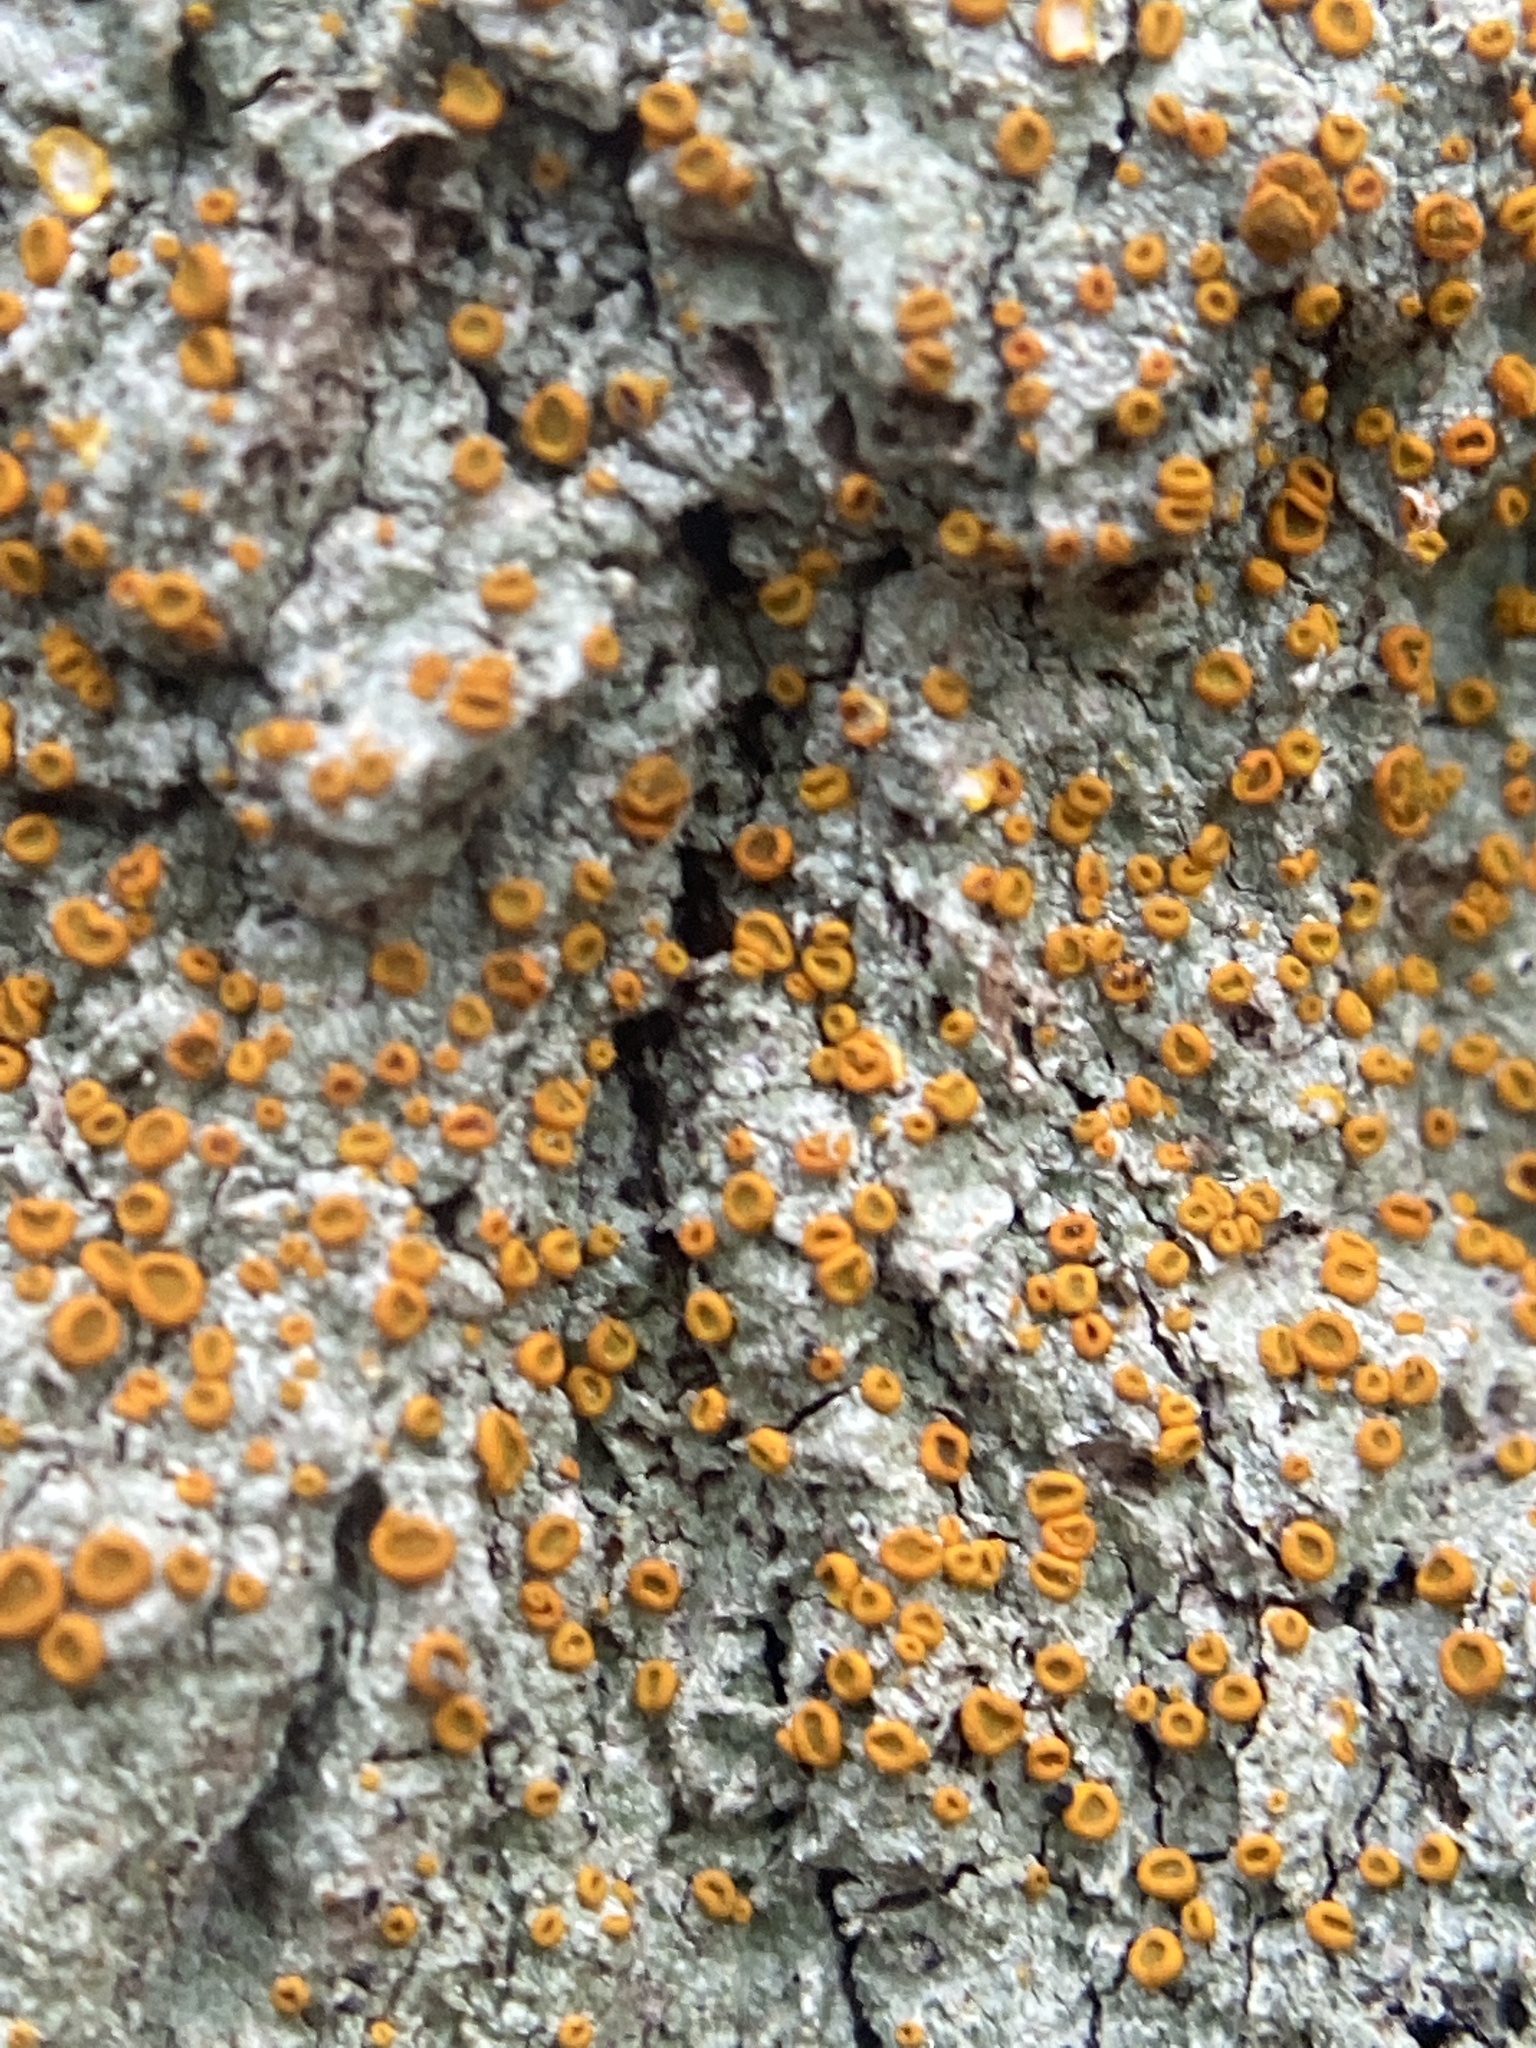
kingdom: Fungi
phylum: Ascomycota
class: Lecanoromycetes
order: Teloschistales
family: Brigantiaeaceae
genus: Brigantiaea
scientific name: Brigantiaea leucoxantha
